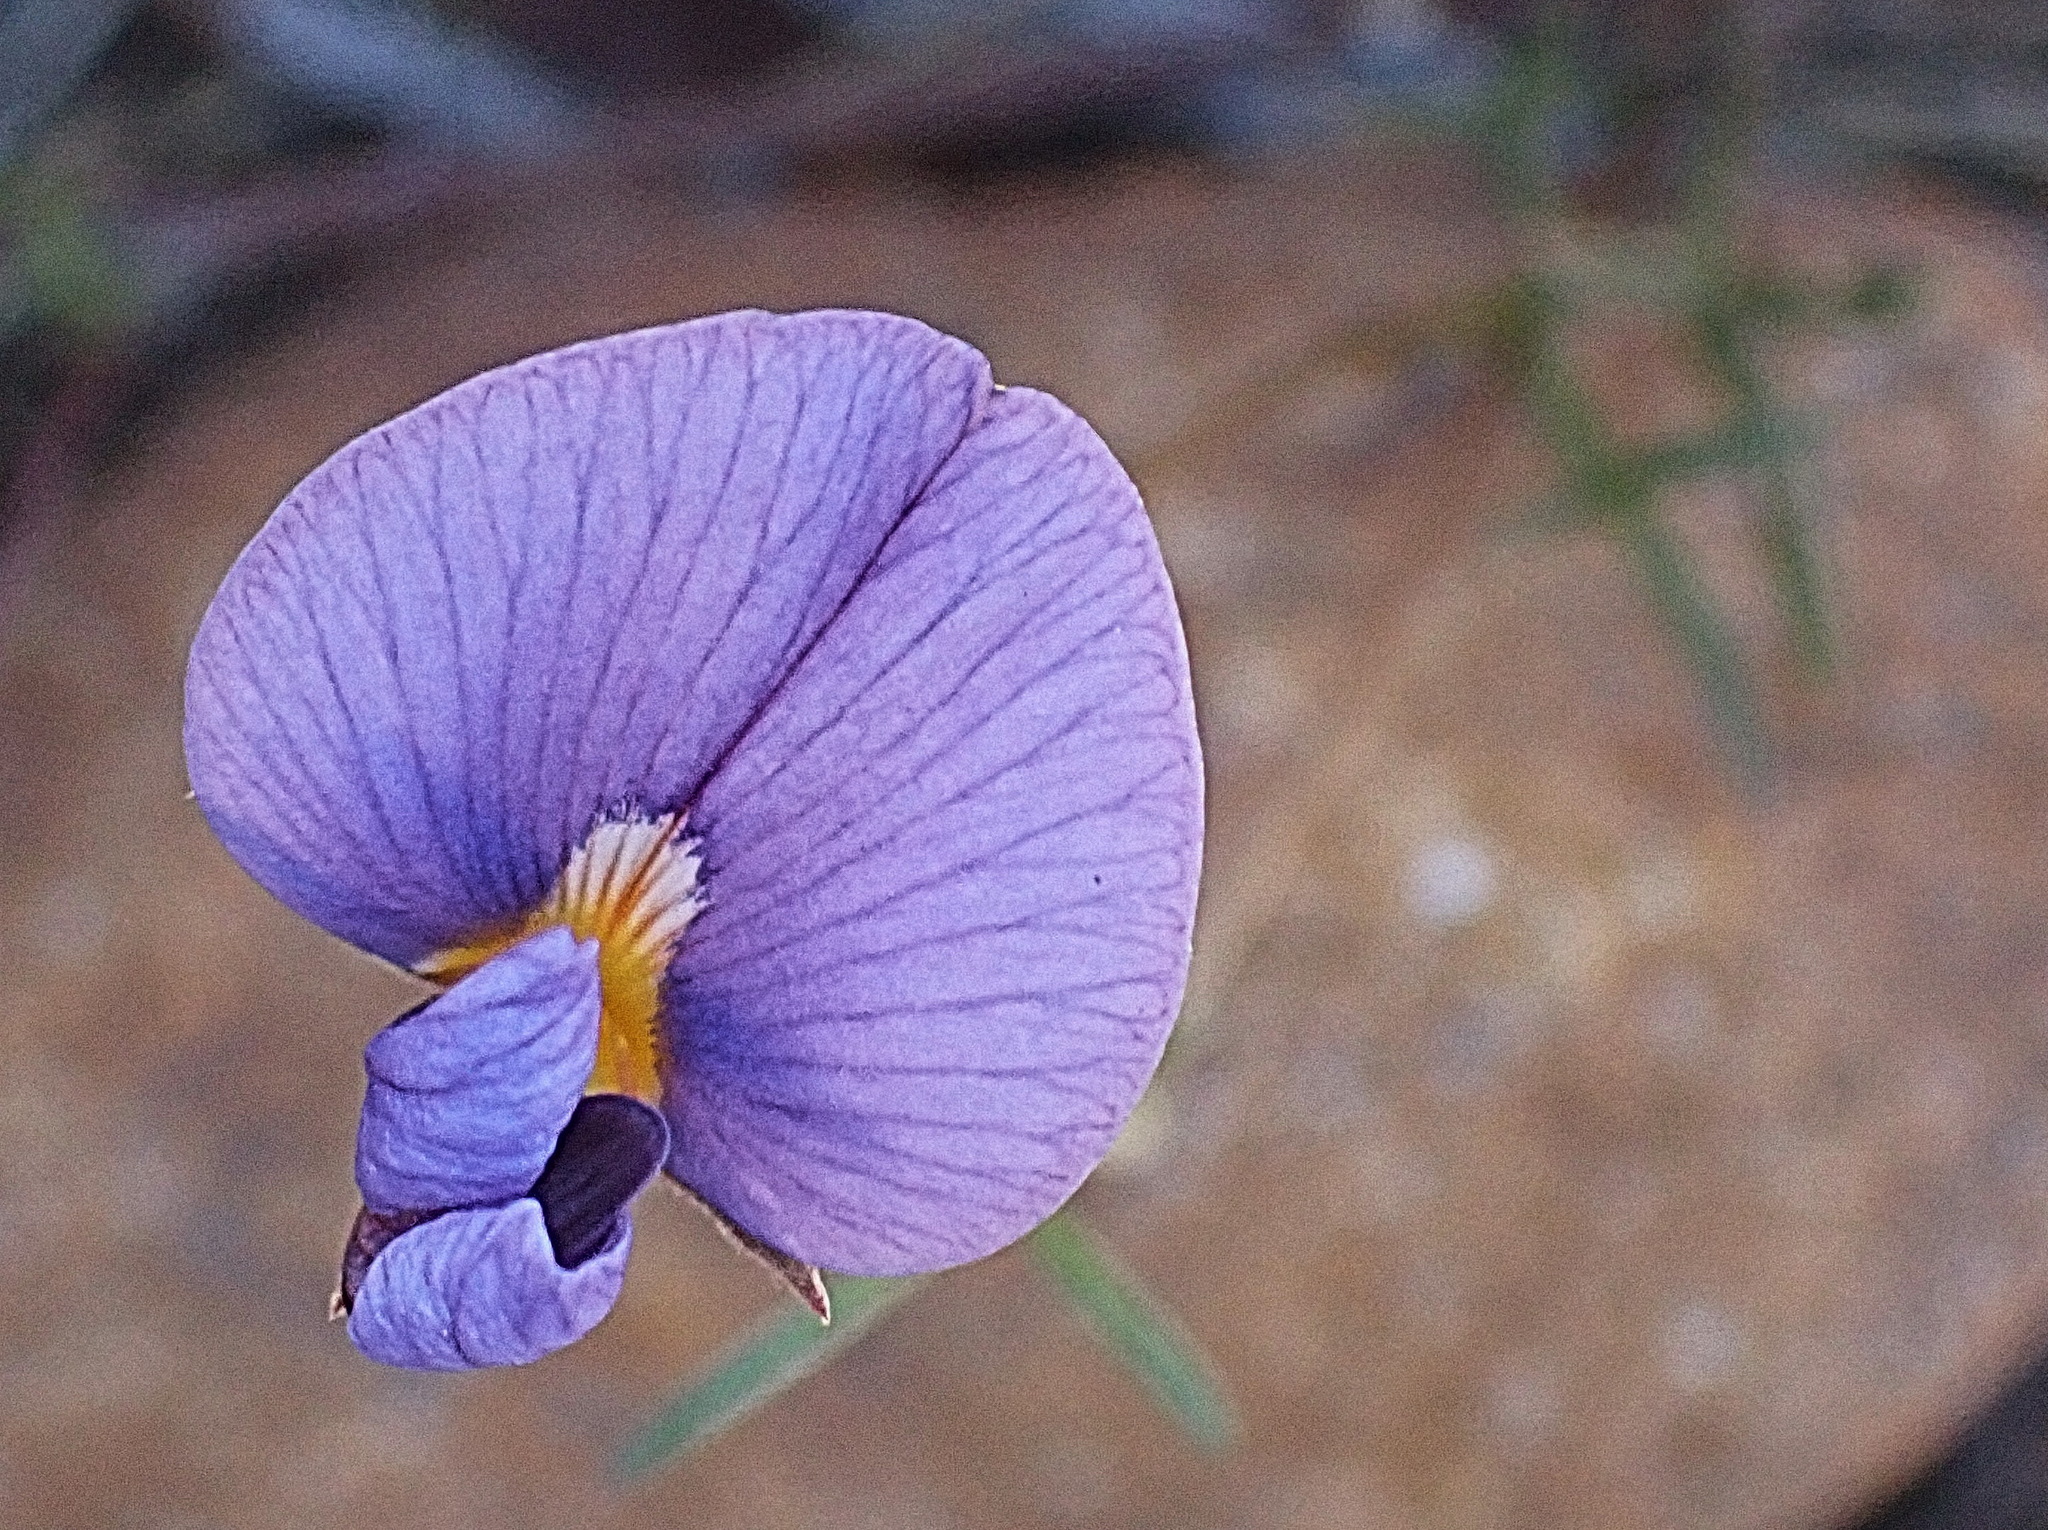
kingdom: Plantae
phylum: Tracheophyta
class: Magnoliopsida
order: Fabales
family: Fabaceae
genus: Lotononis
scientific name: Lotononis filiformis
